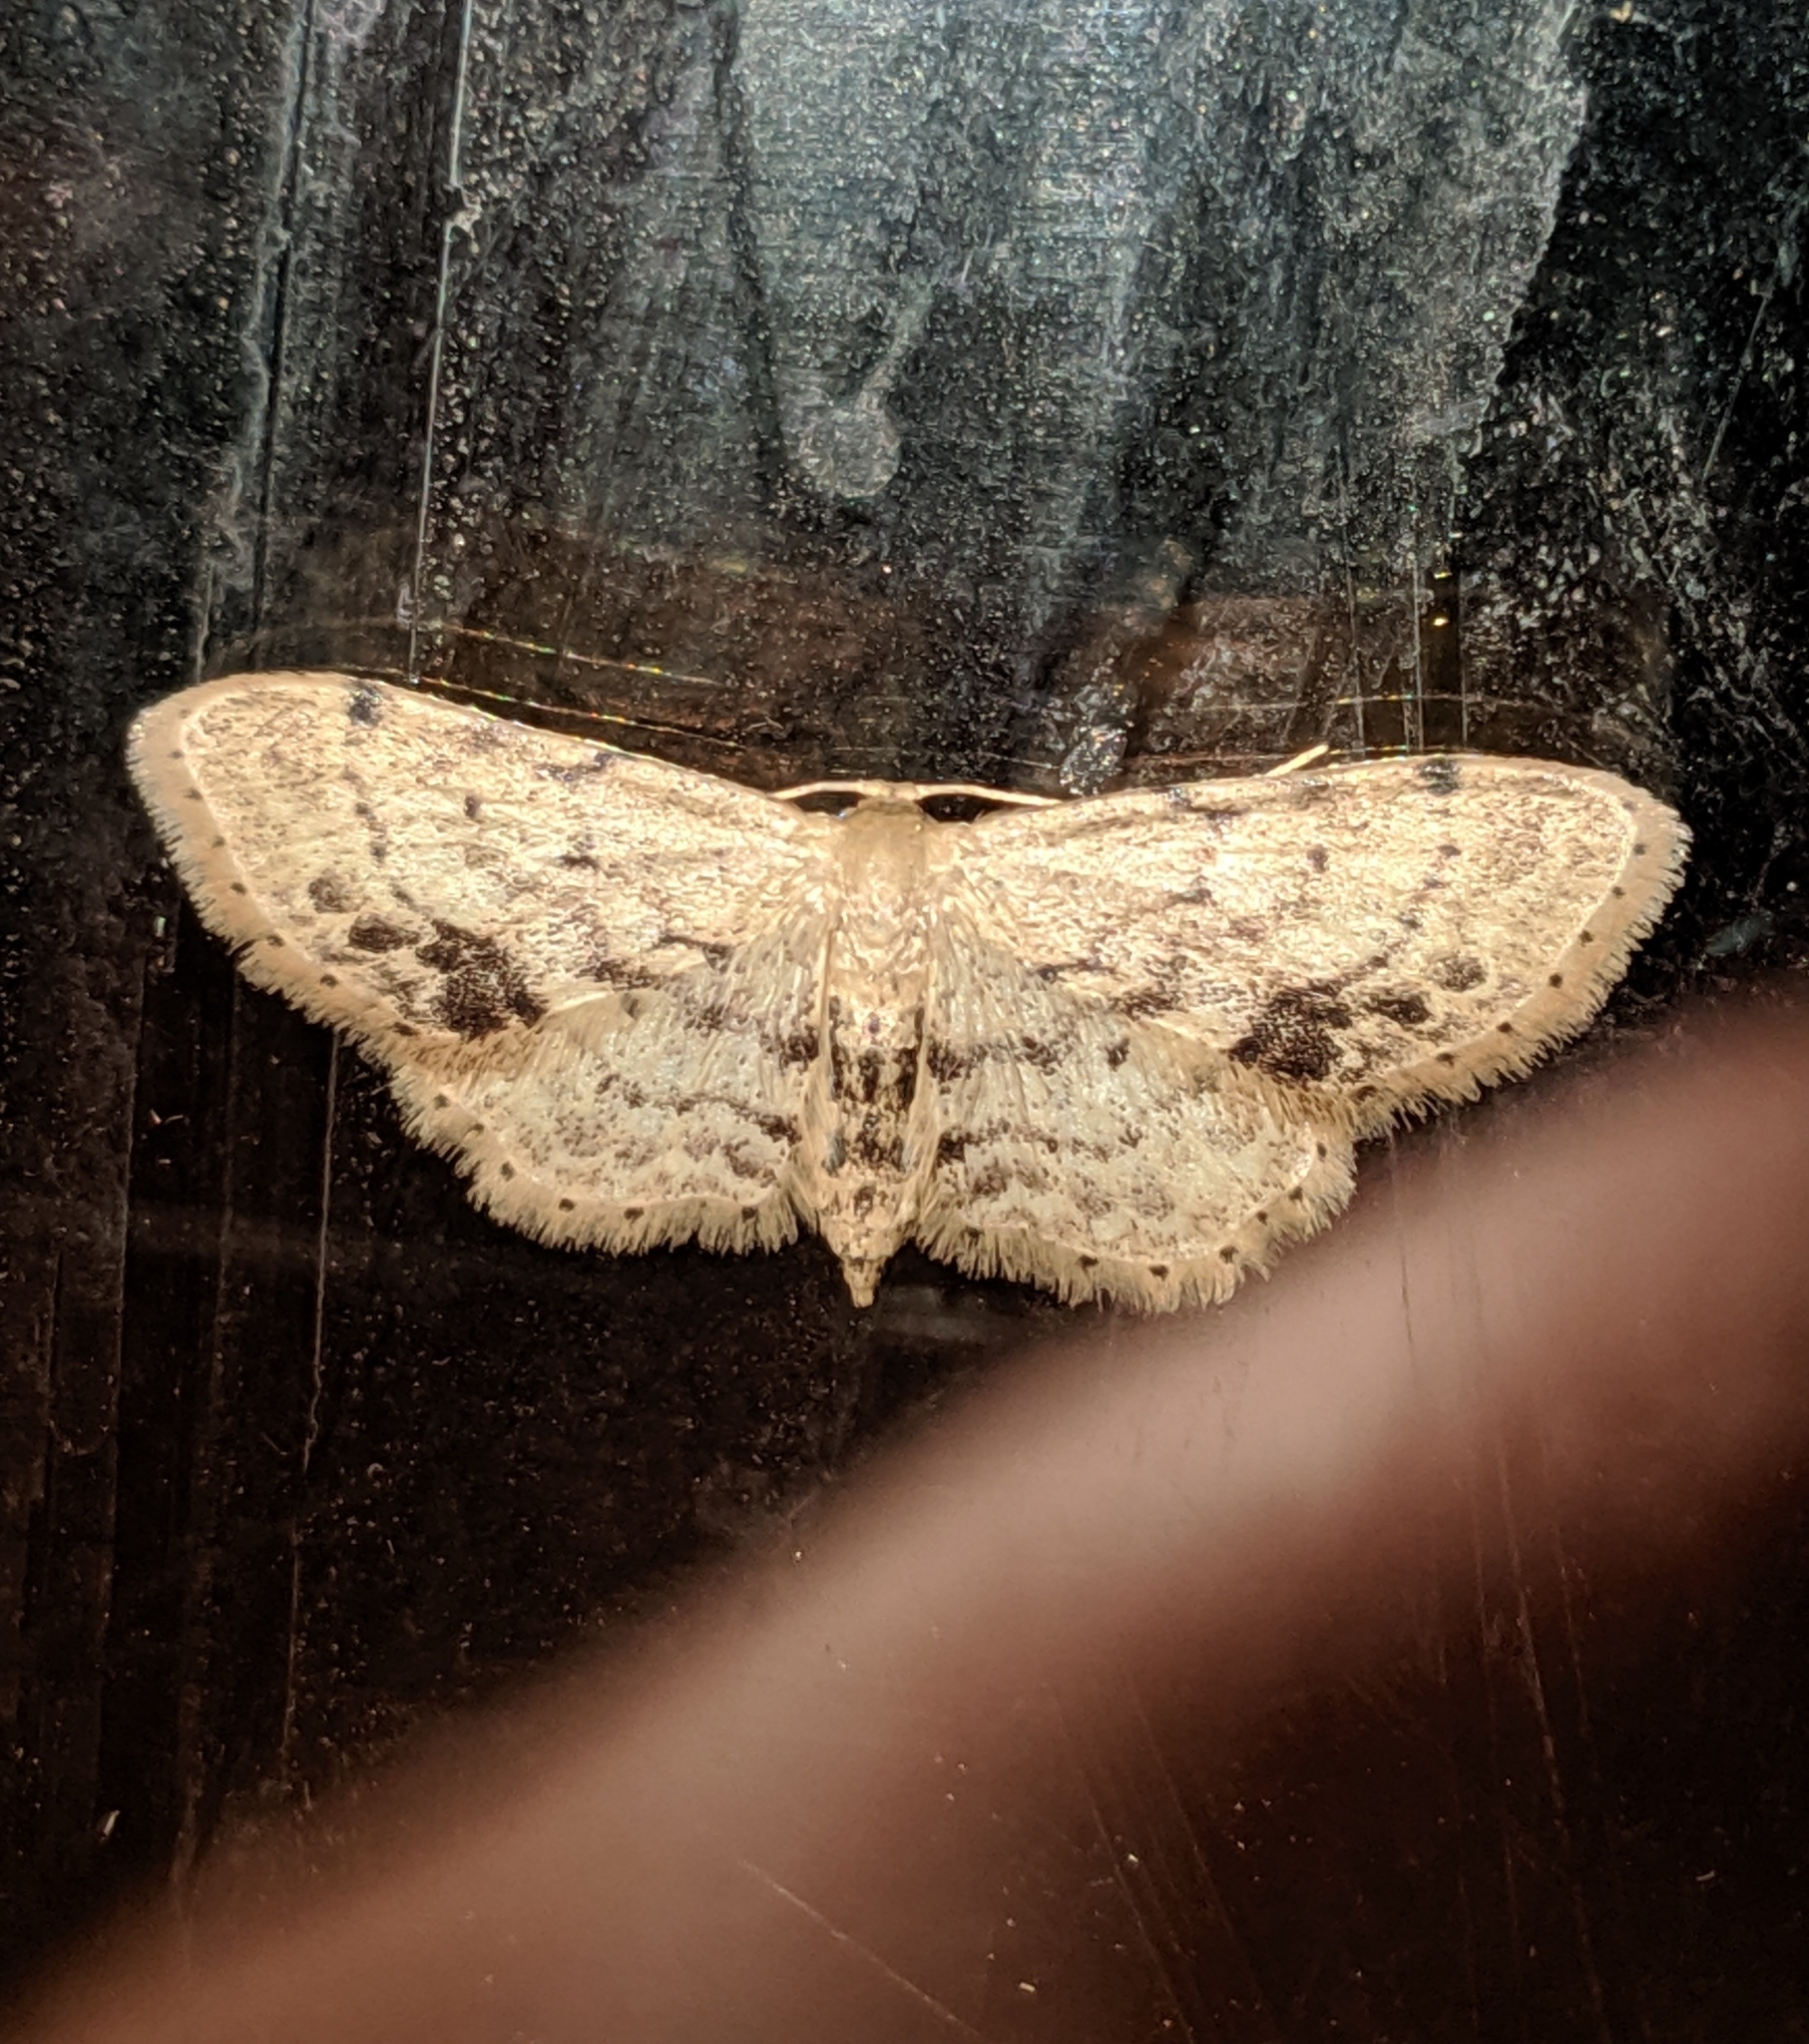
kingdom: Animalia
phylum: Arthropoda
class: Insecta
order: Lepidoptera
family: Geometridae
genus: Idaea
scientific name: Idaea dimidiata
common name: Single-dotted wave
